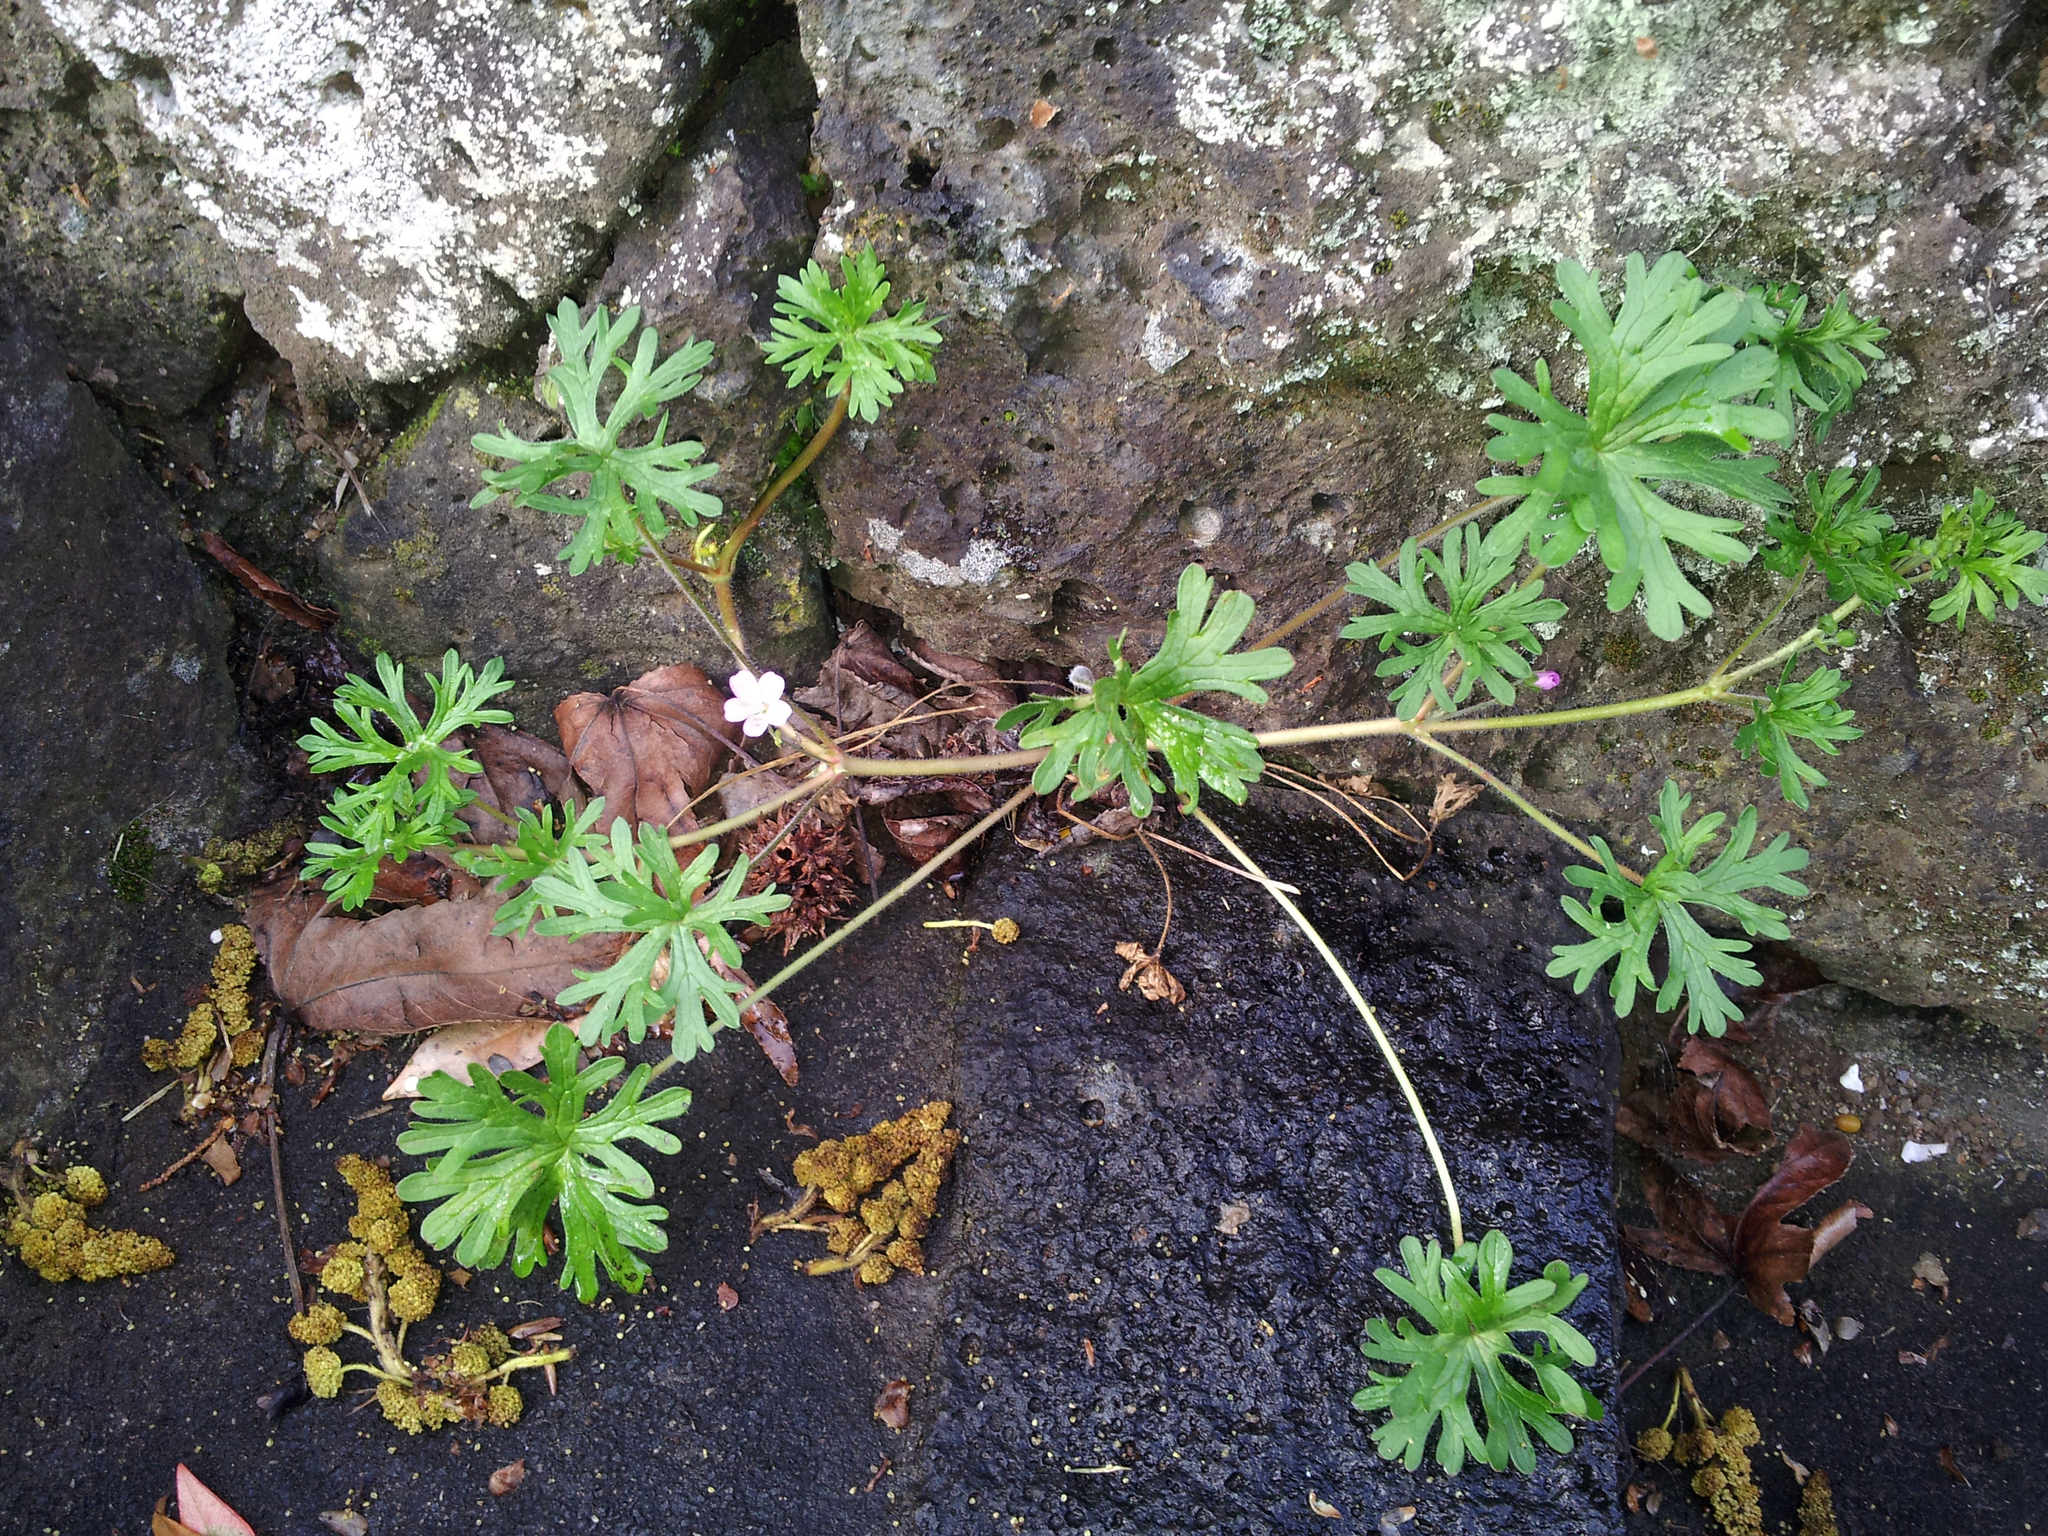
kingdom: Plantae
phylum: Tracheophyta
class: Magnoliopsida
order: Geraniales
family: Geraniaceae
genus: Geranium
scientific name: Geranium solanderi
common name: Solander's geranium
